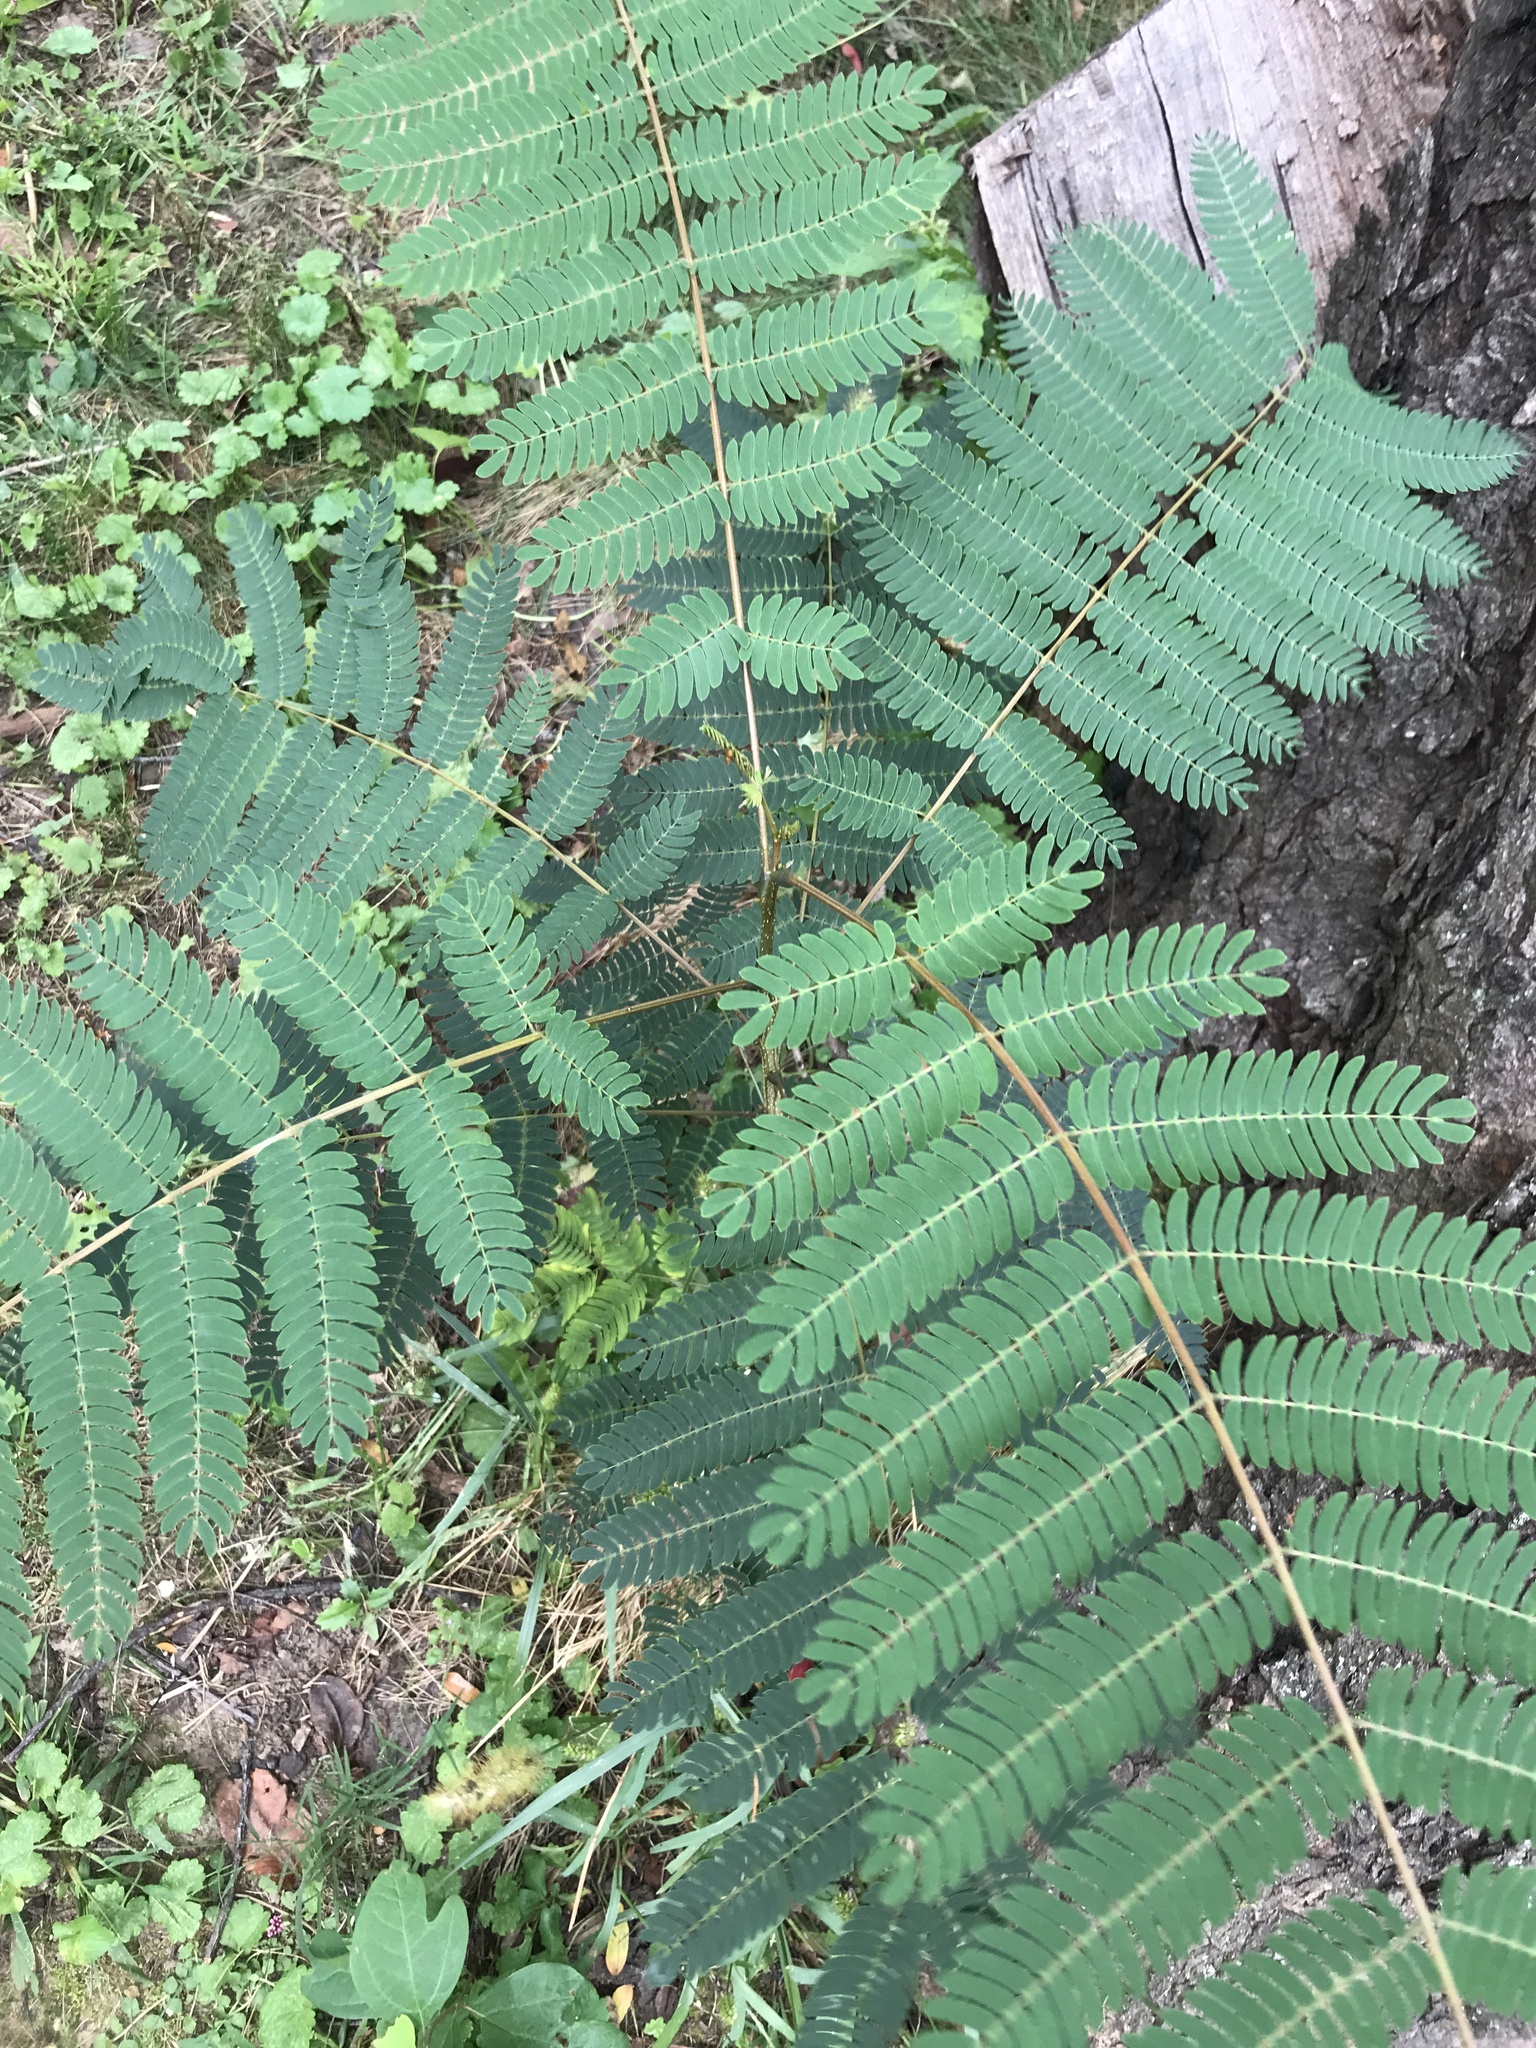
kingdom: Plantae
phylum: Tracheophyta
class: Magnoliopsida
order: Fabales
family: Fabaceae
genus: Albizia
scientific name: Albizia julibrissin
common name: Silktree
